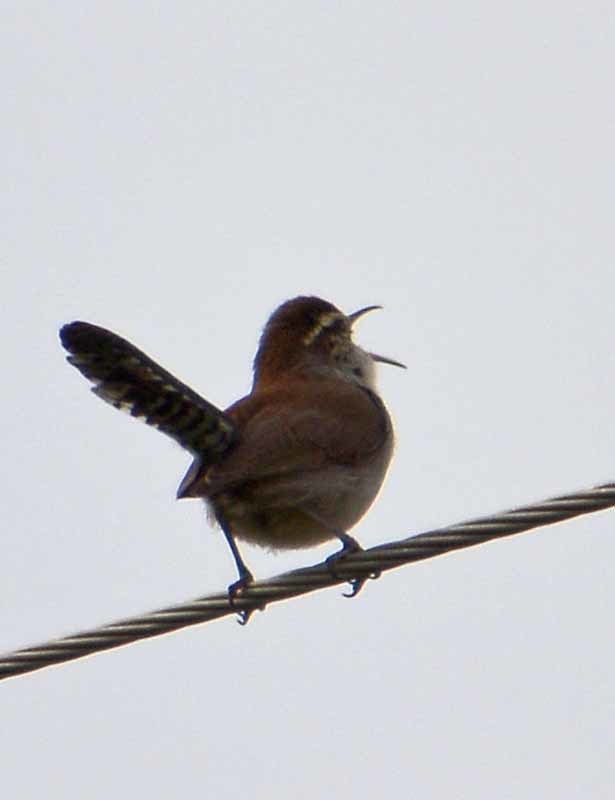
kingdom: Animalia
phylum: Chordata
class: Aves
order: Passeriformes
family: Troglodytidae
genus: Thryomanes
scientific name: Thryomanes bewickii
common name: Bewick's wren
